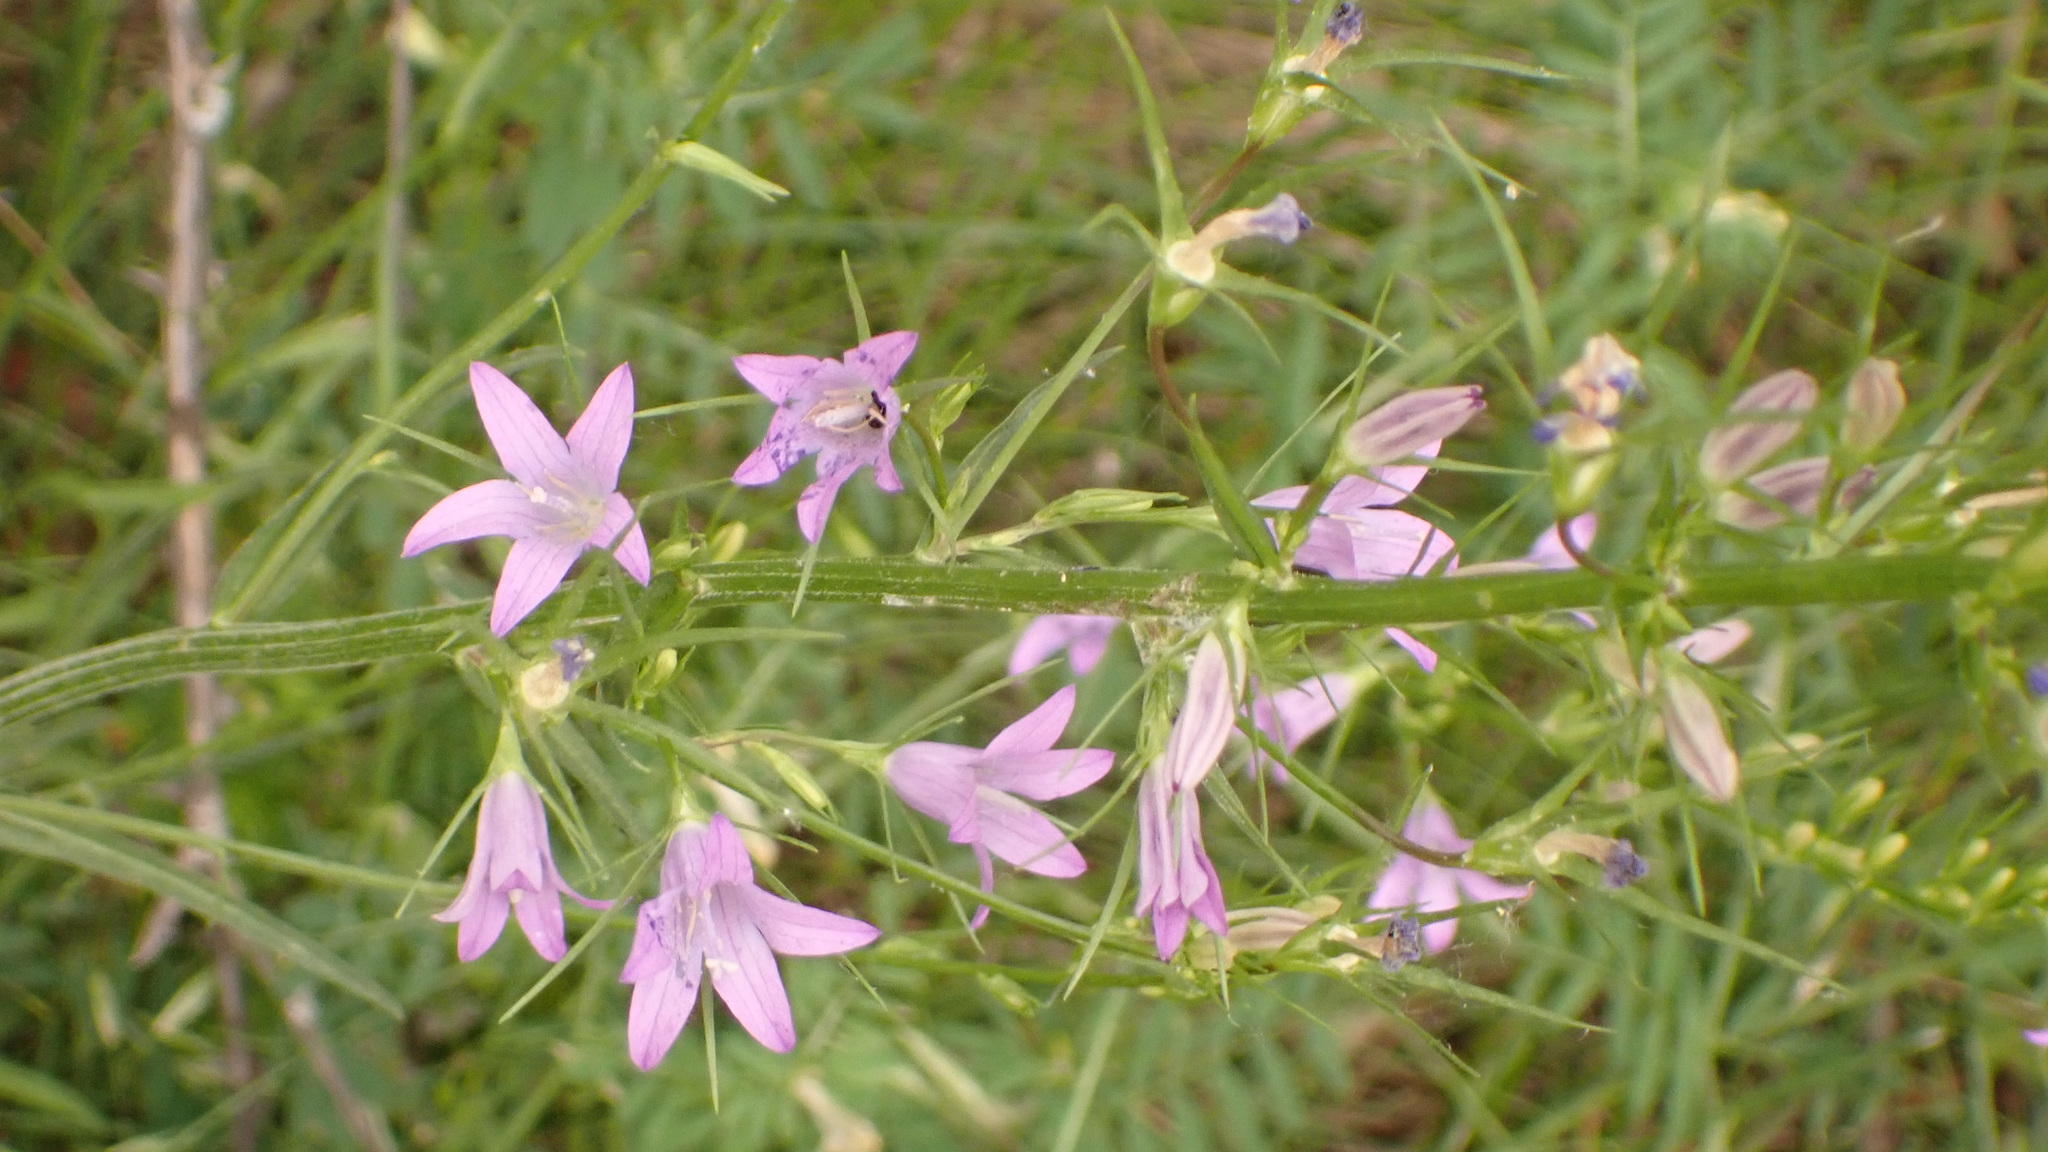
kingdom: Plantae
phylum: Tracheophyta
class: Magnoliopsida
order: Asterales
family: Campanulaceae
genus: Campanula
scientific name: Campanula rapunculus
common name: Rampion bellflower
